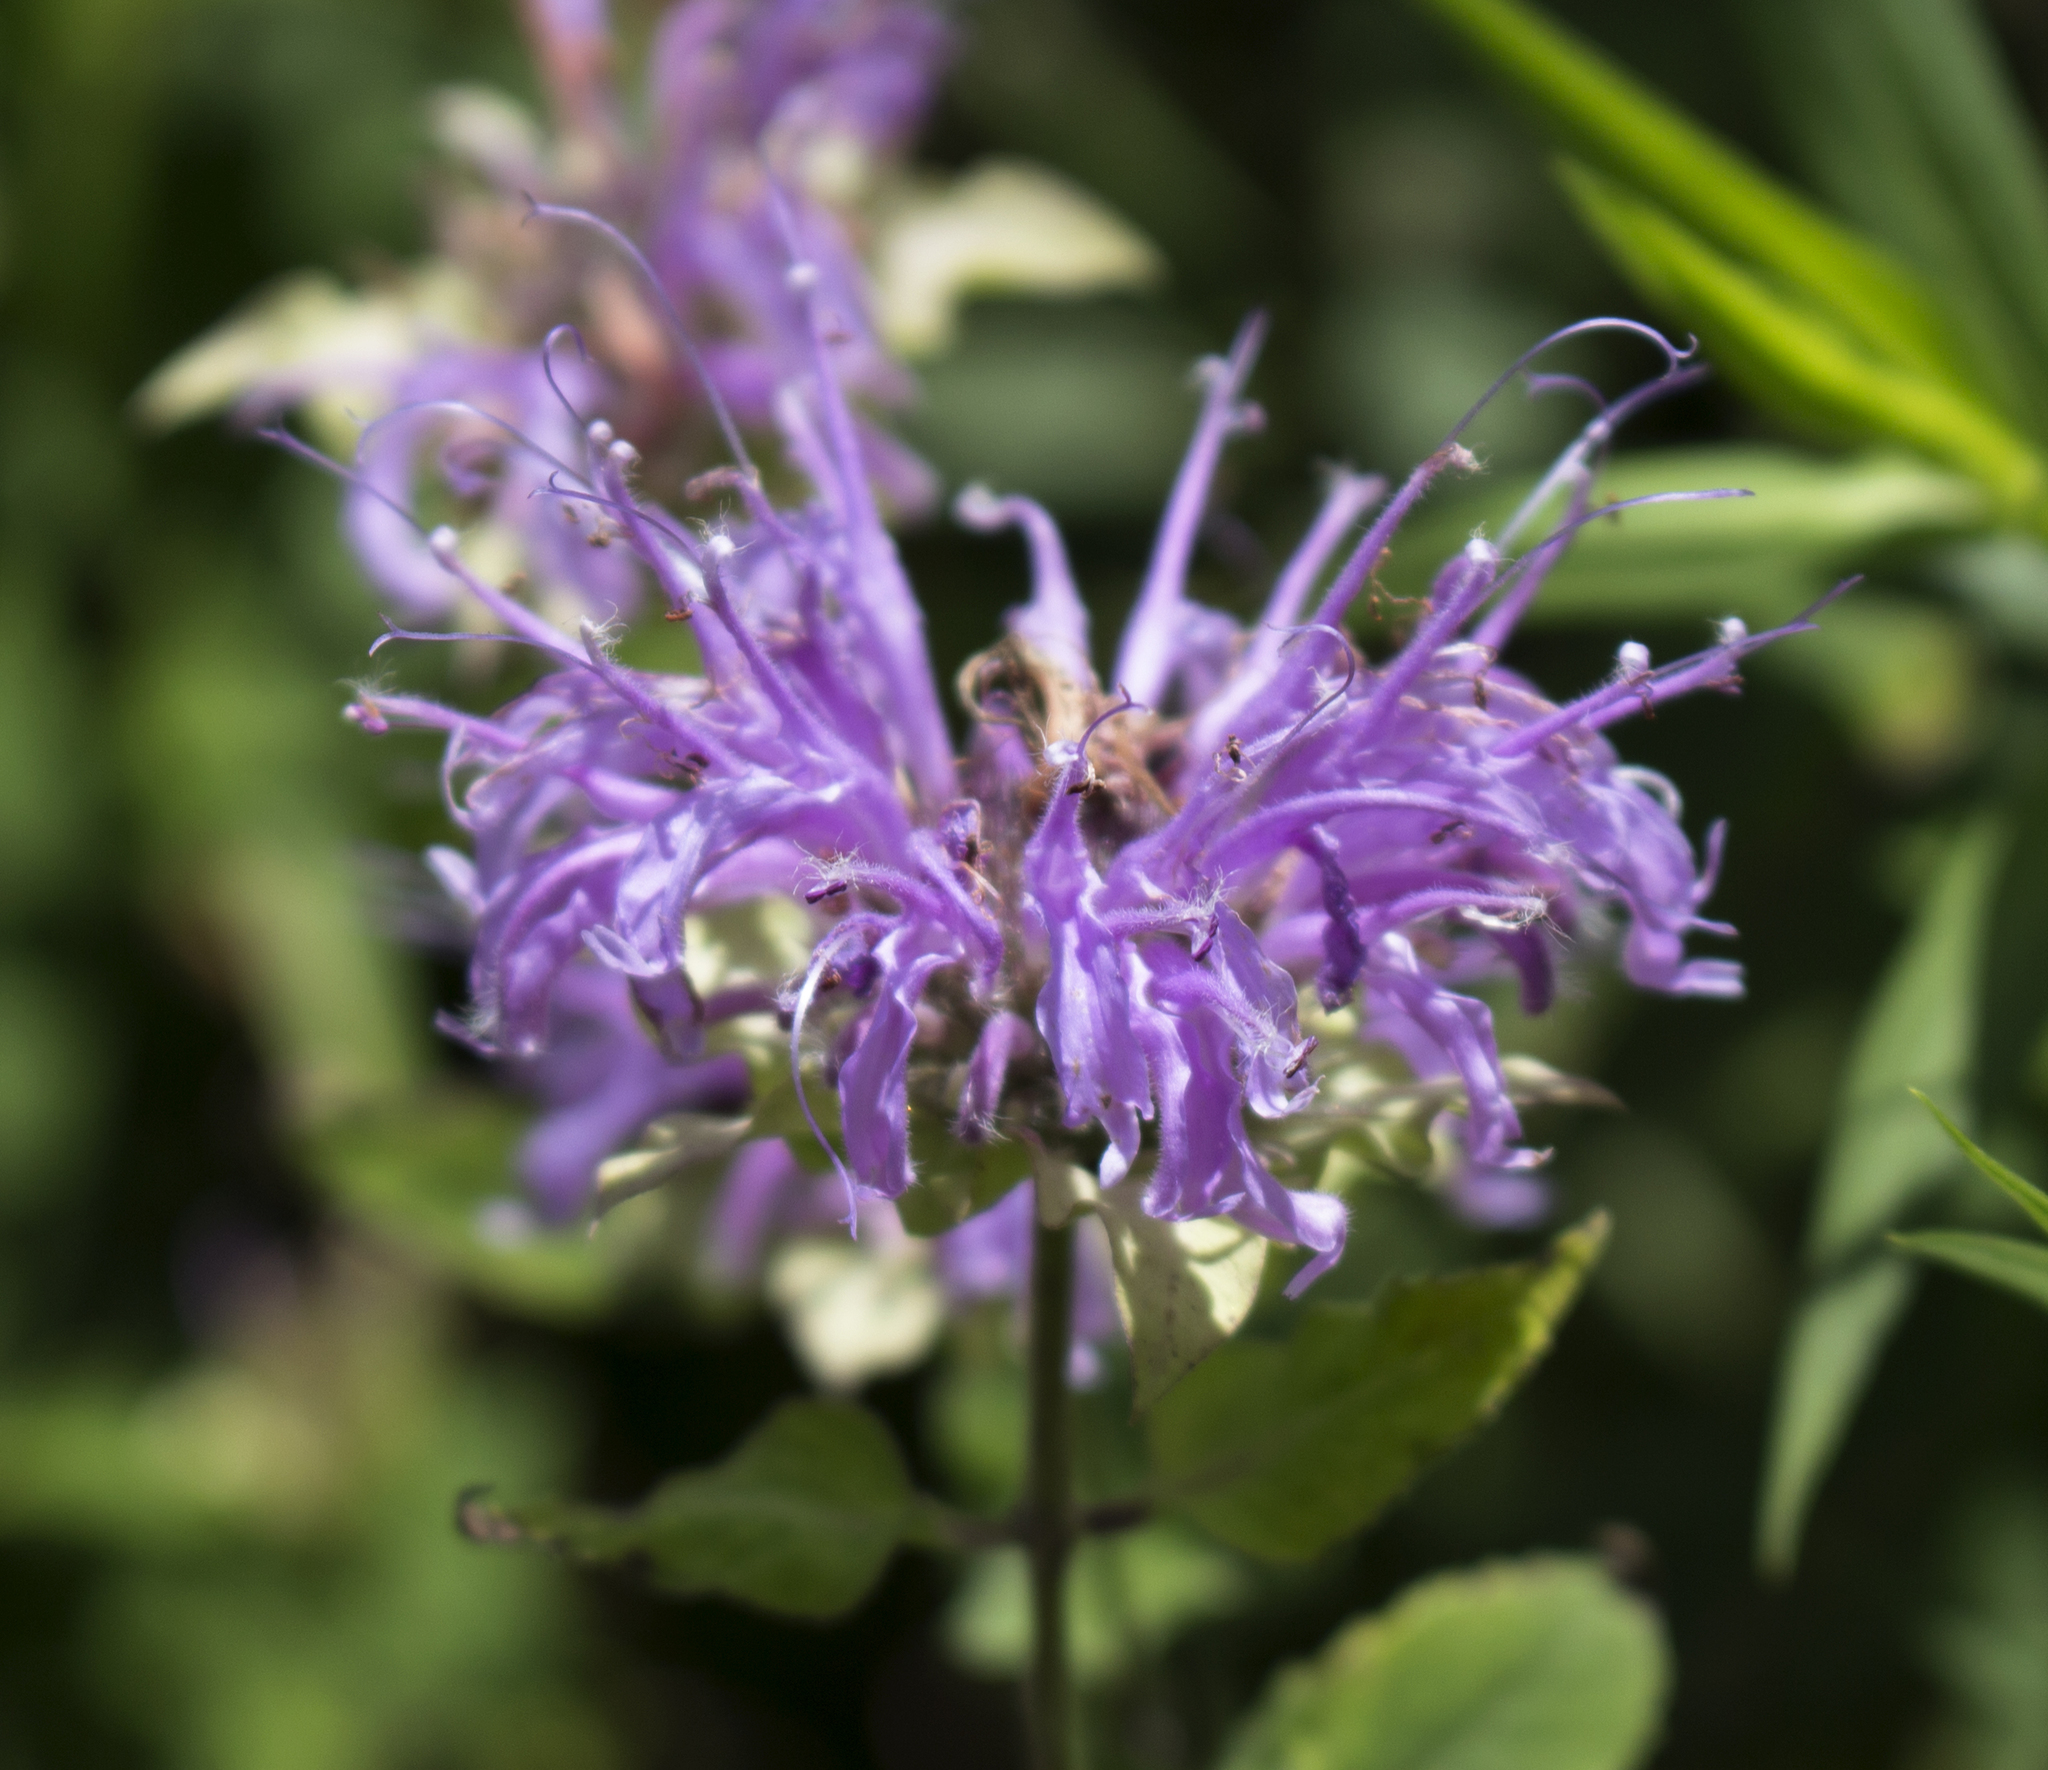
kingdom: Plantae
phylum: Tracheophyta
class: Magnoliopsida
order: Lamiales
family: Lamiaceae
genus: Monarda
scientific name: Monarda fistulosa
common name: Purple beebalm
